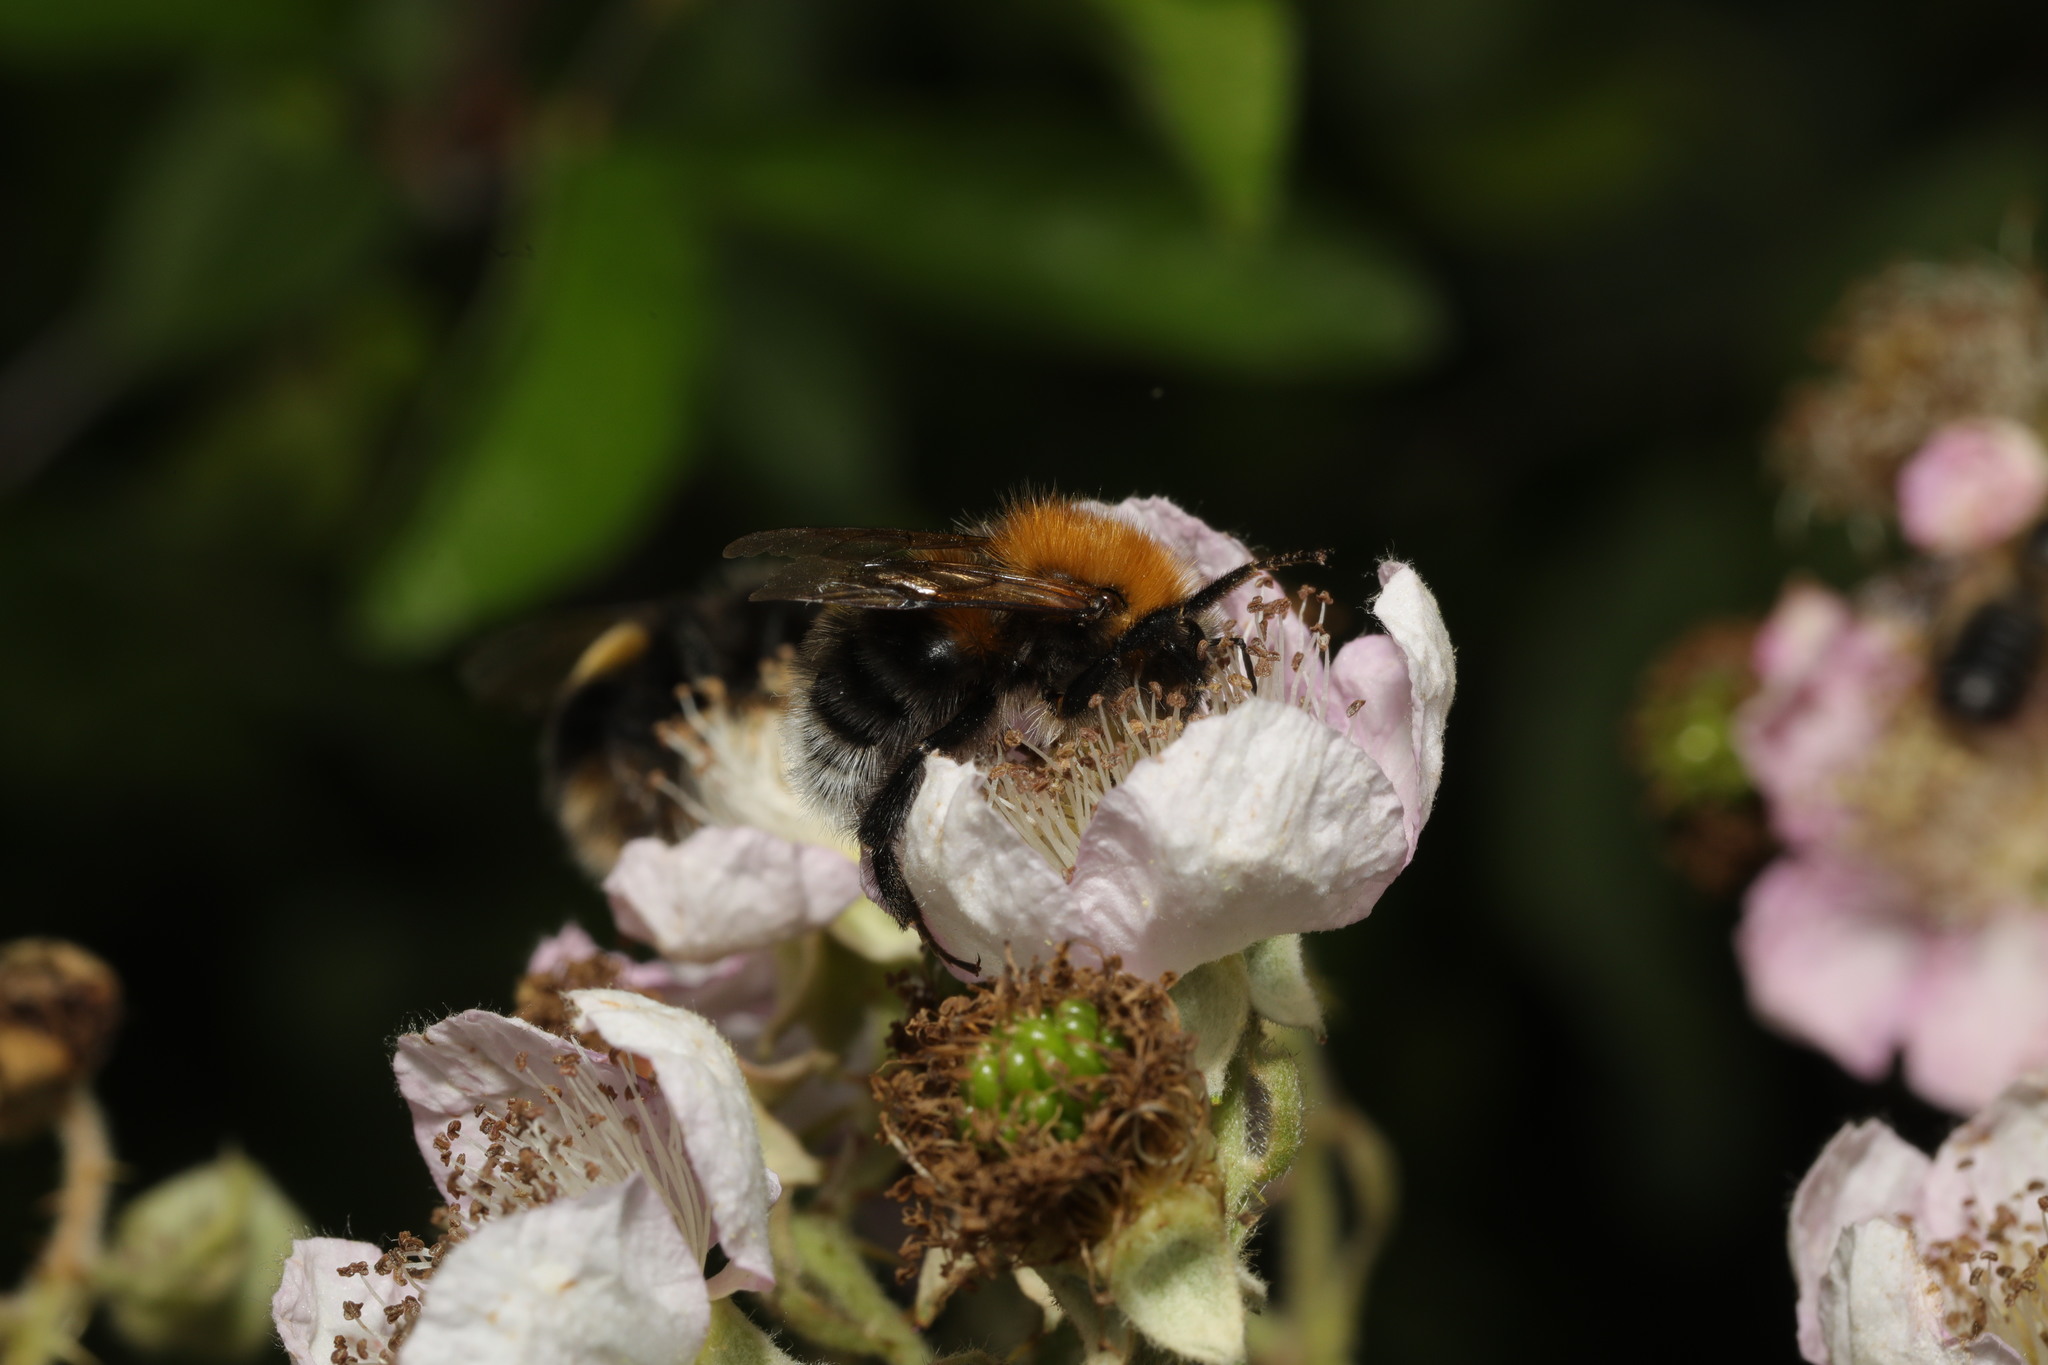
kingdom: Animalia
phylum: Arthropoda
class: Insecta
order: Hymenoptera
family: Apidae
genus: Bombus
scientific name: Bombus hypnorum
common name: New garden bumblebee
